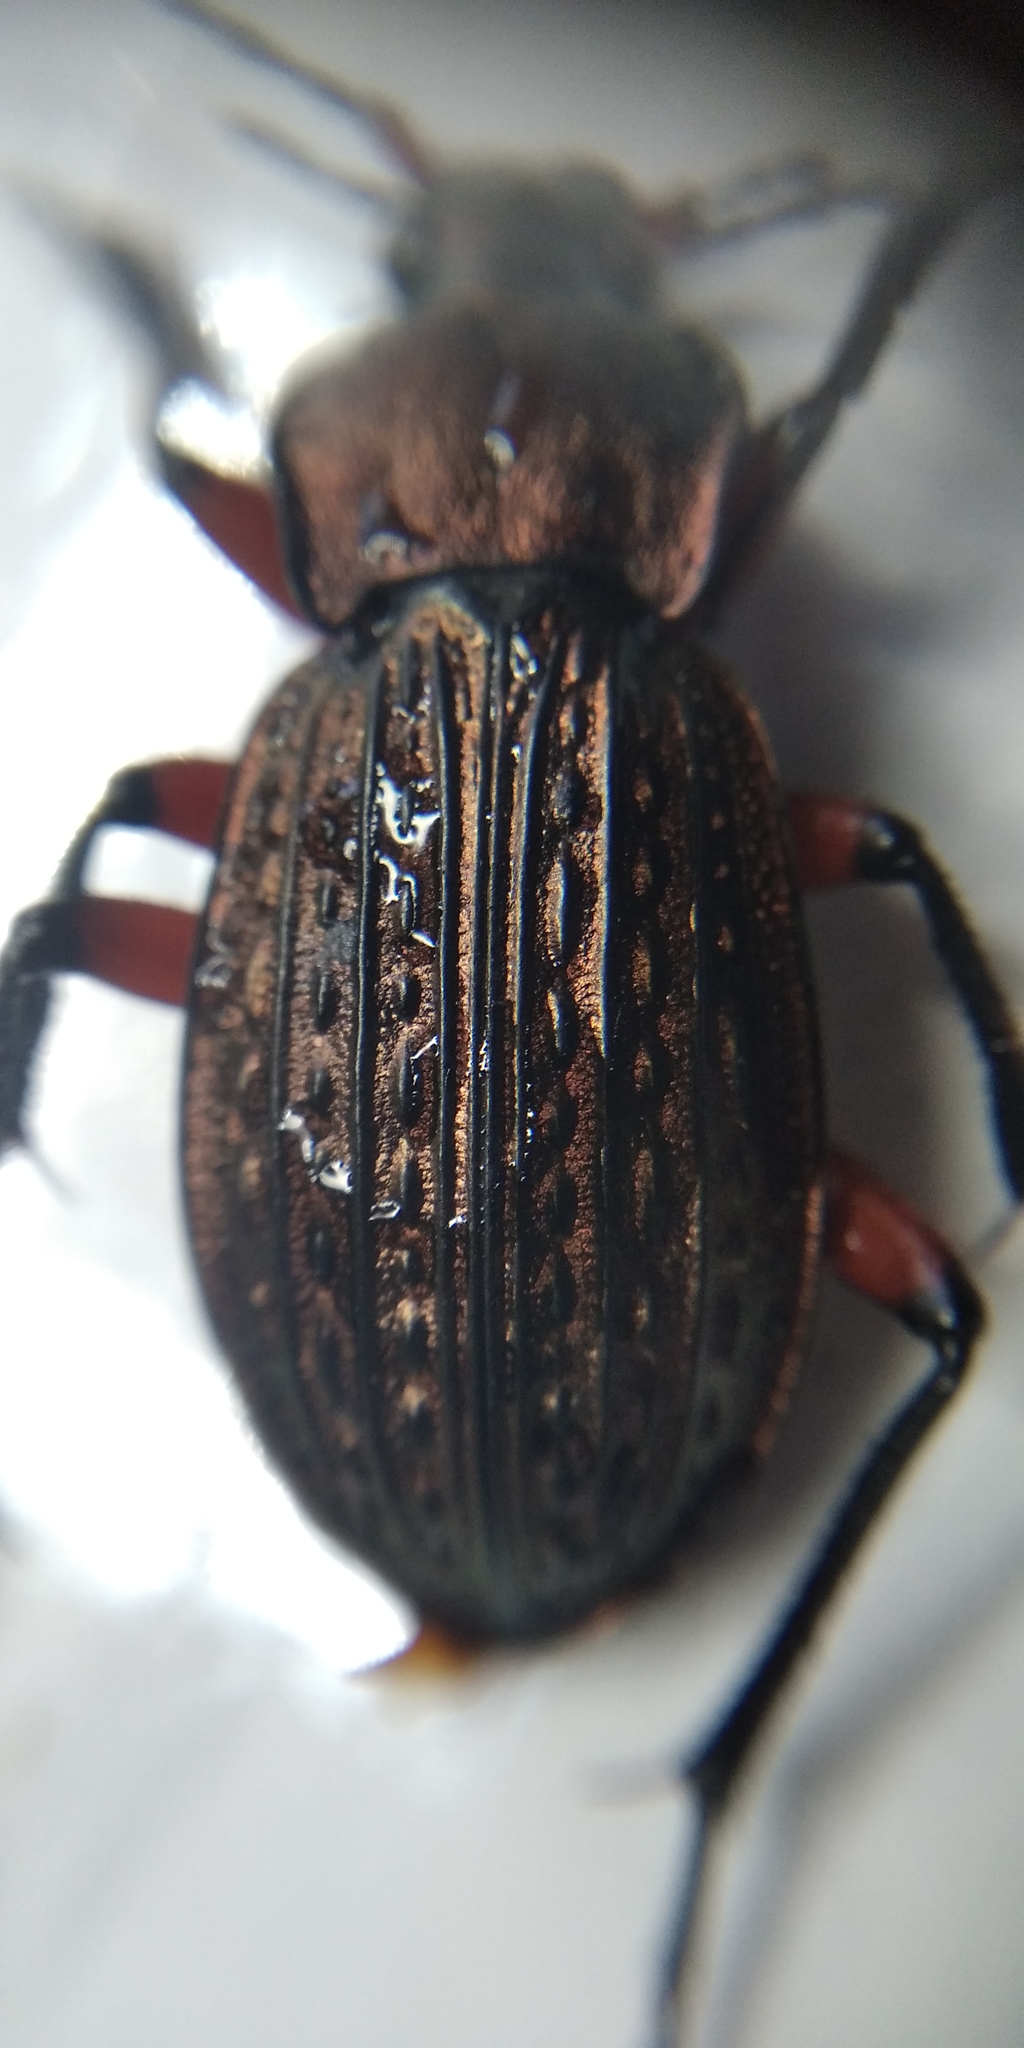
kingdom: Animalia
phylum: Arthropoda
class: Insecta
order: Coleoptera
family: Carabidae
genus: Carabus
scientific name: Carabus cancellatus
